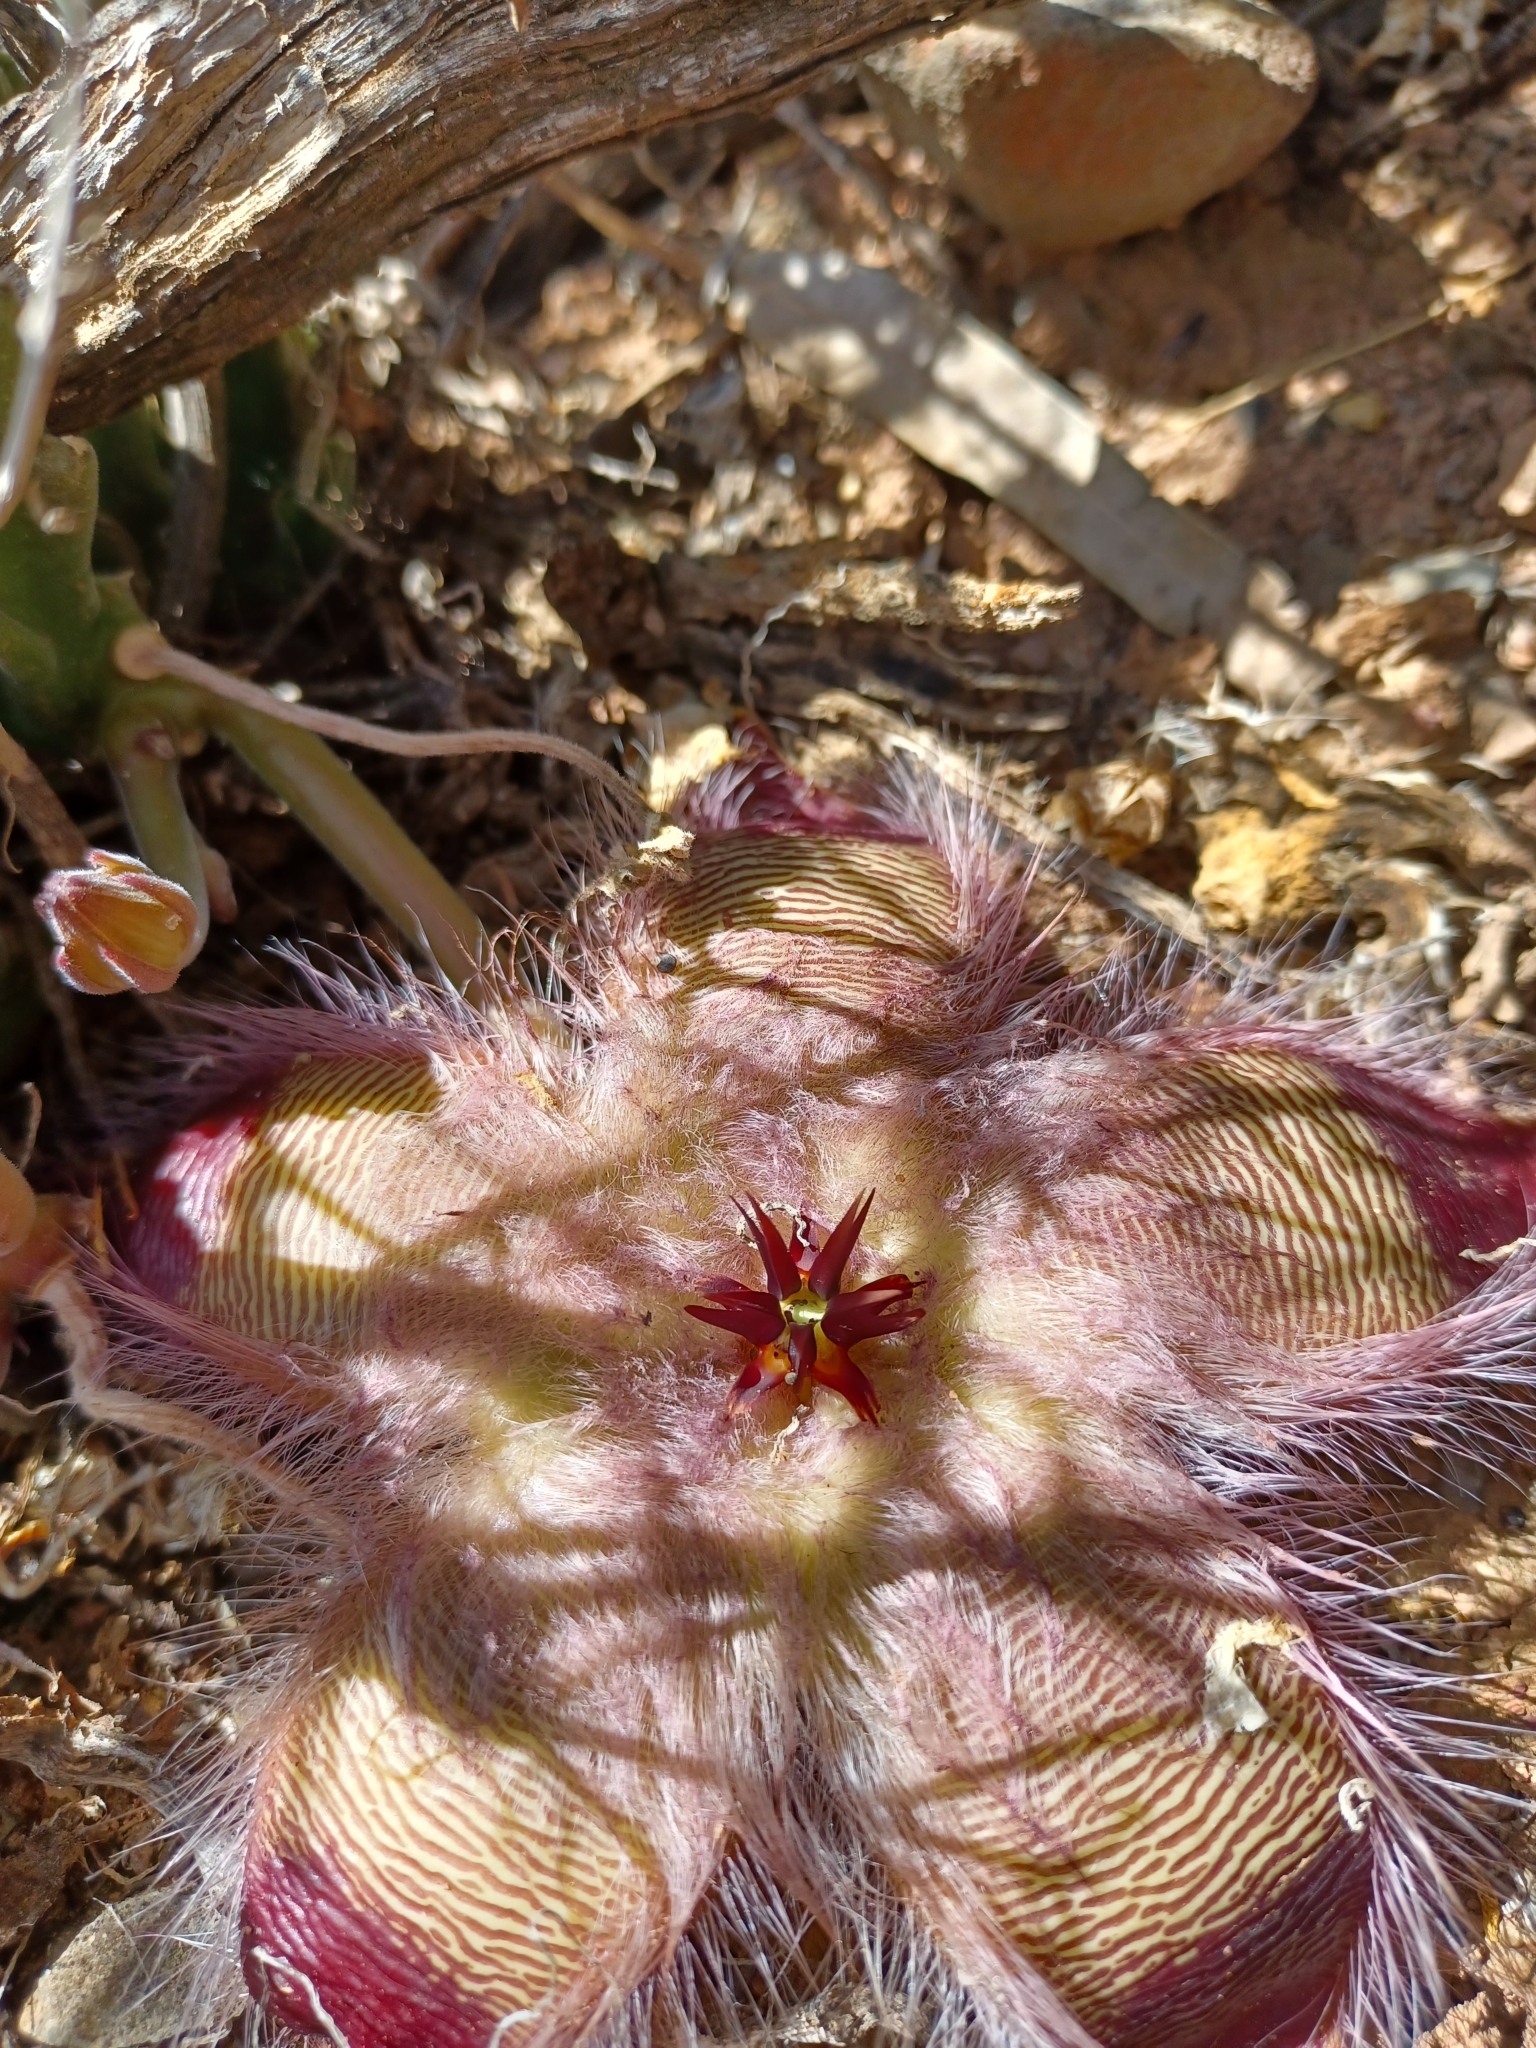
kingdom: Plantae
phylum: Tracheophyta
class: Magnoliopsida
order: Gentianales
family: Apocynaceae
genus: Ceropegia
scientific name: Ceropegia pulvinata
